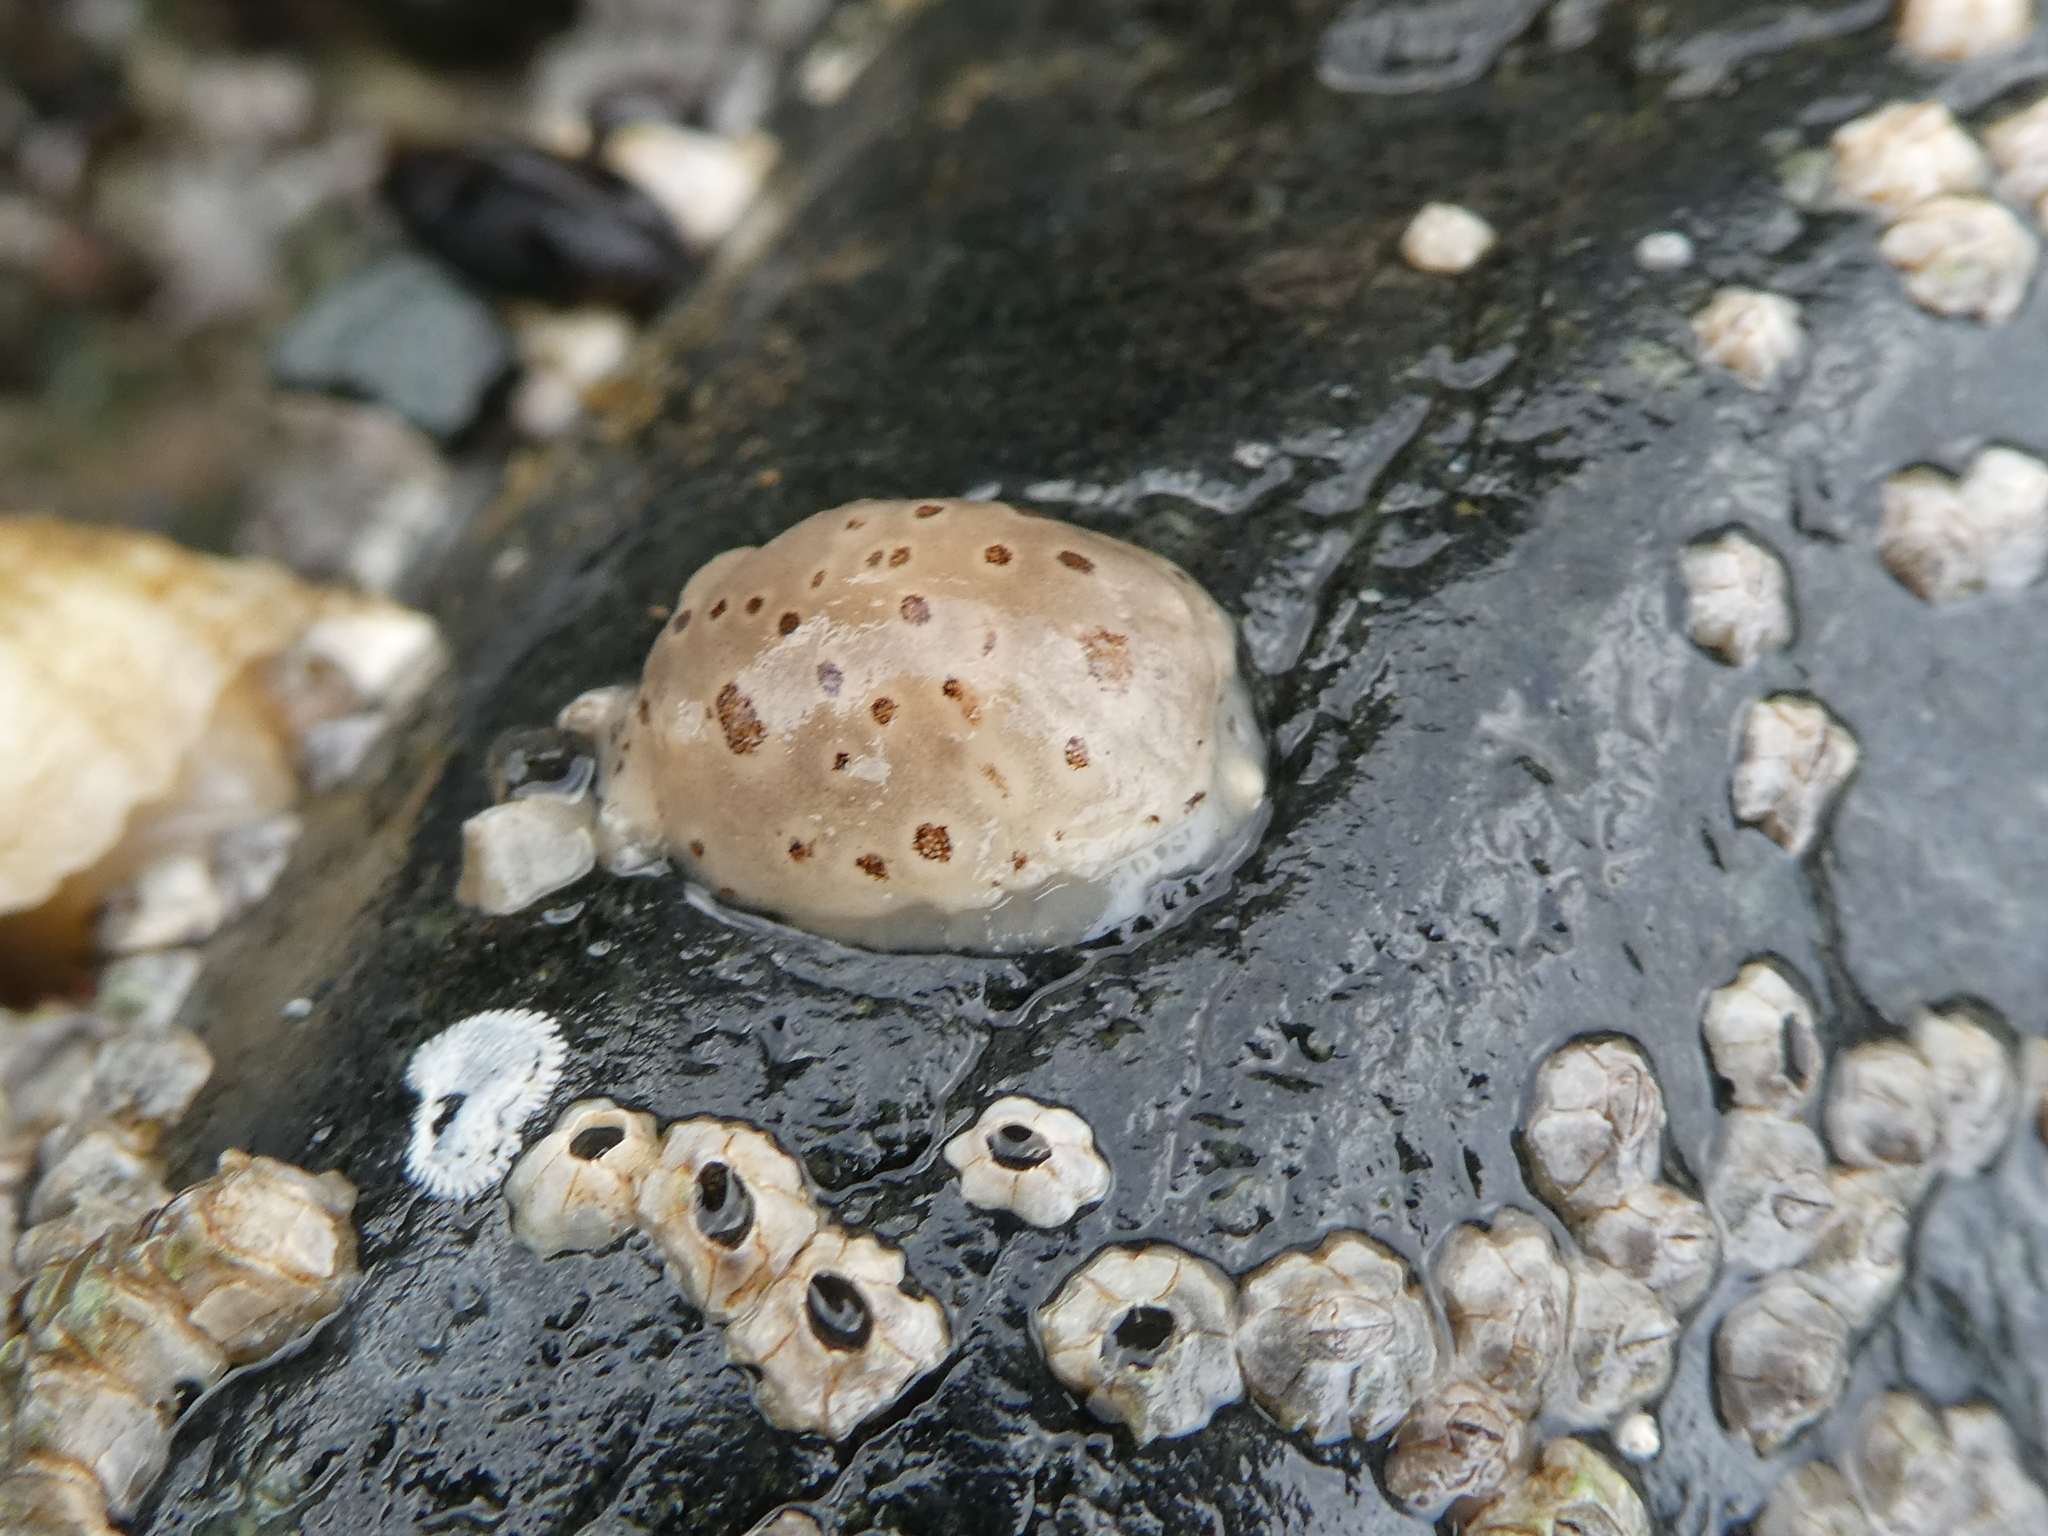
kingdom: Animalia
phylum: Mollusca
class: Gastropoda
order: Nudibranchia
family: Discodorididae
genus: Diaulula
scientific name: Diaulula odonoghuei
